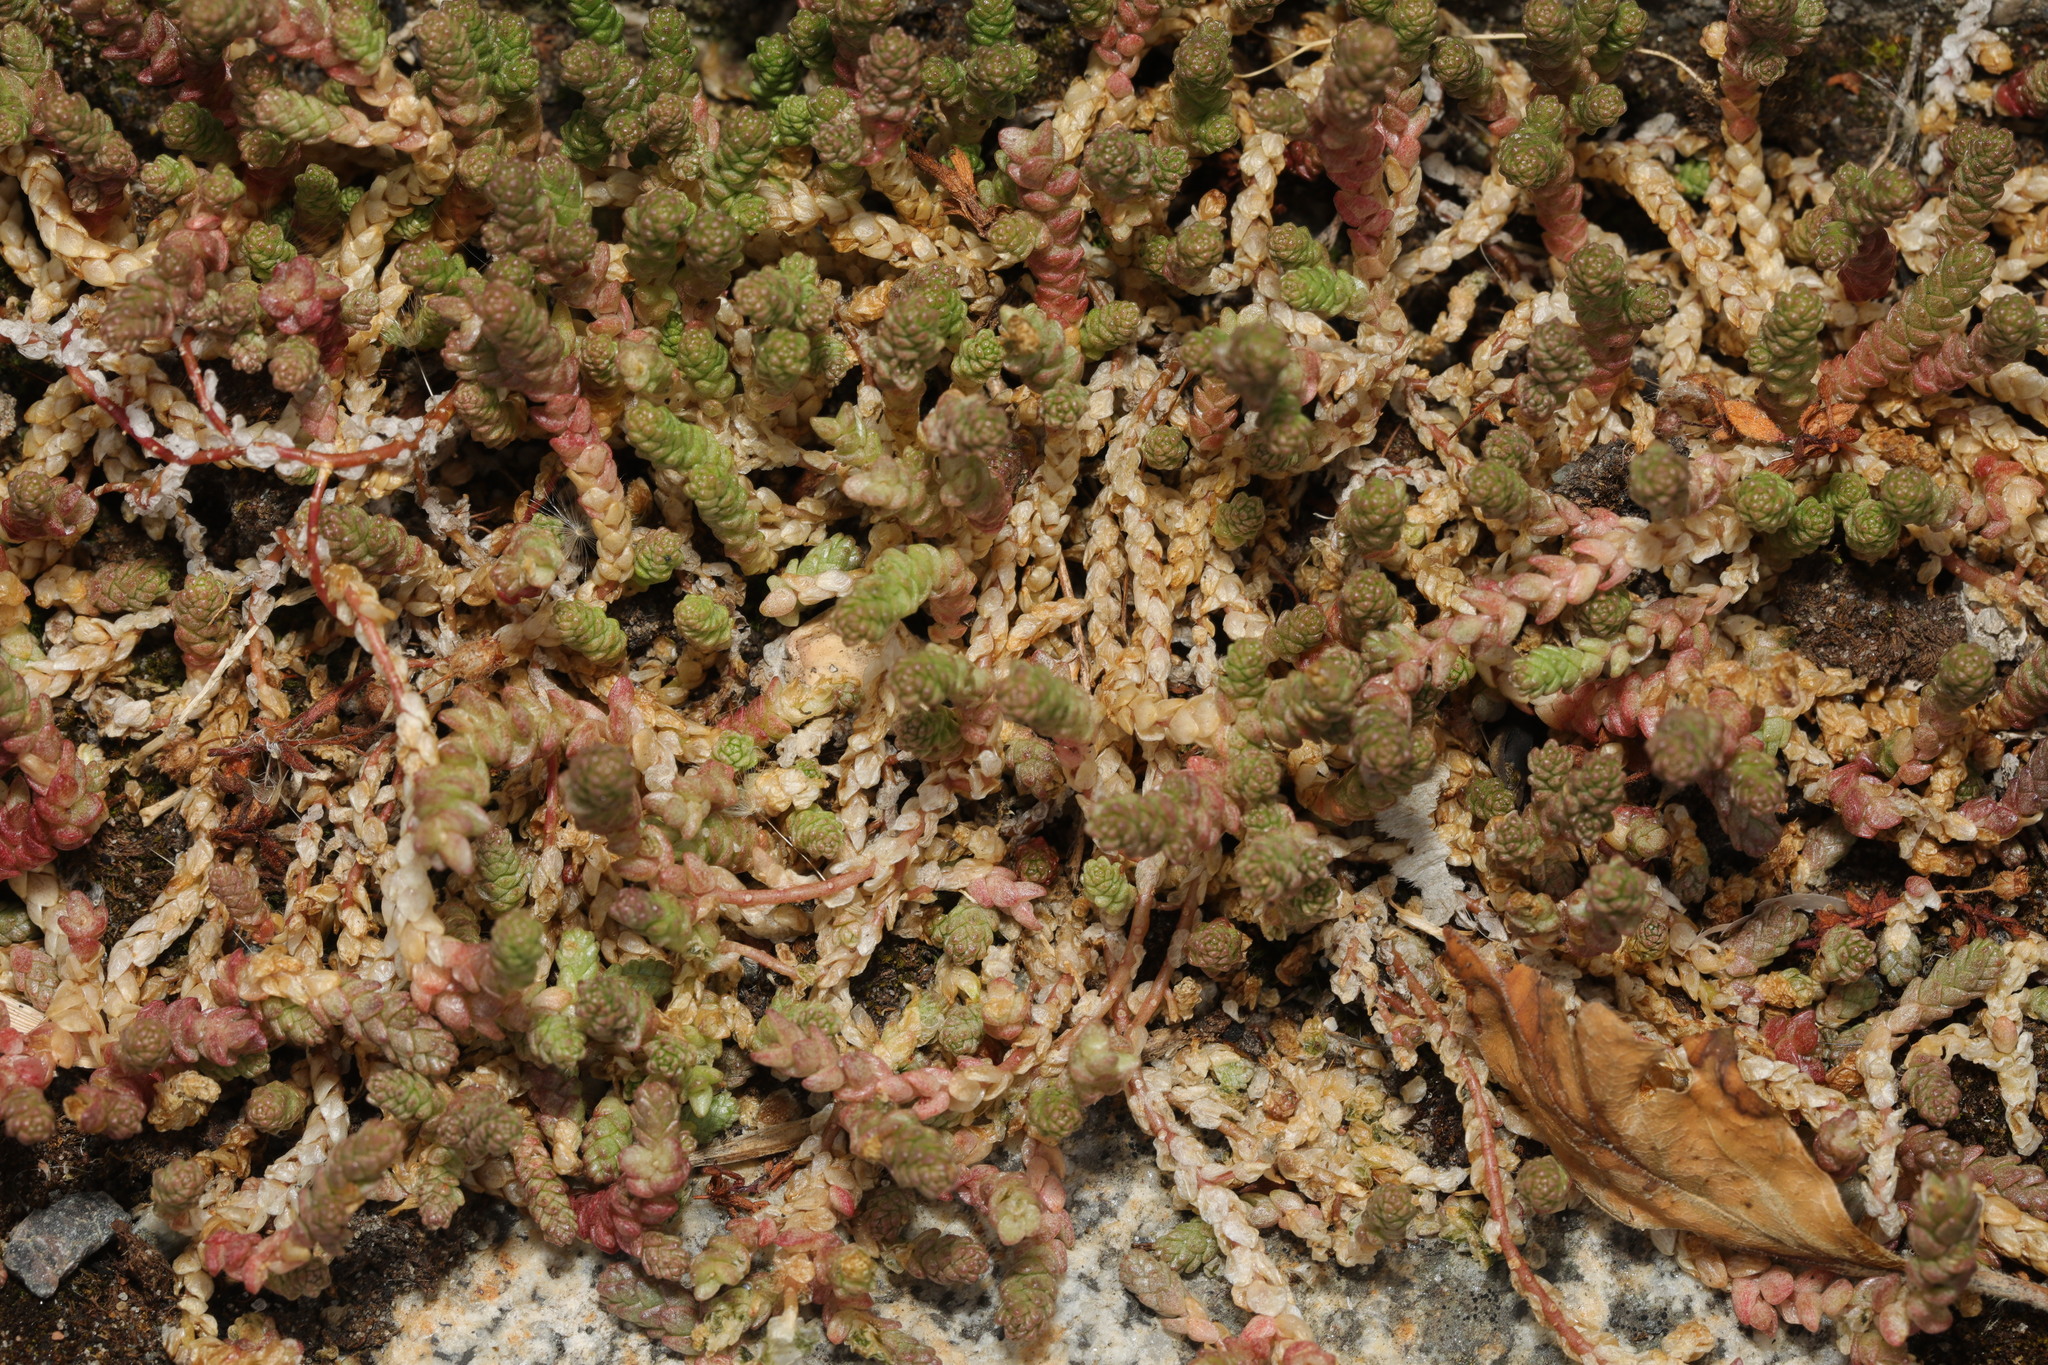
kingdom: Plantae
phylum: Tracheophyta
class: Magnoliopsida
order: Saxifragales
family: Crassulaceae
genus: Sedum
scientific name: Sedum acre
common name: Biting stonecrop
